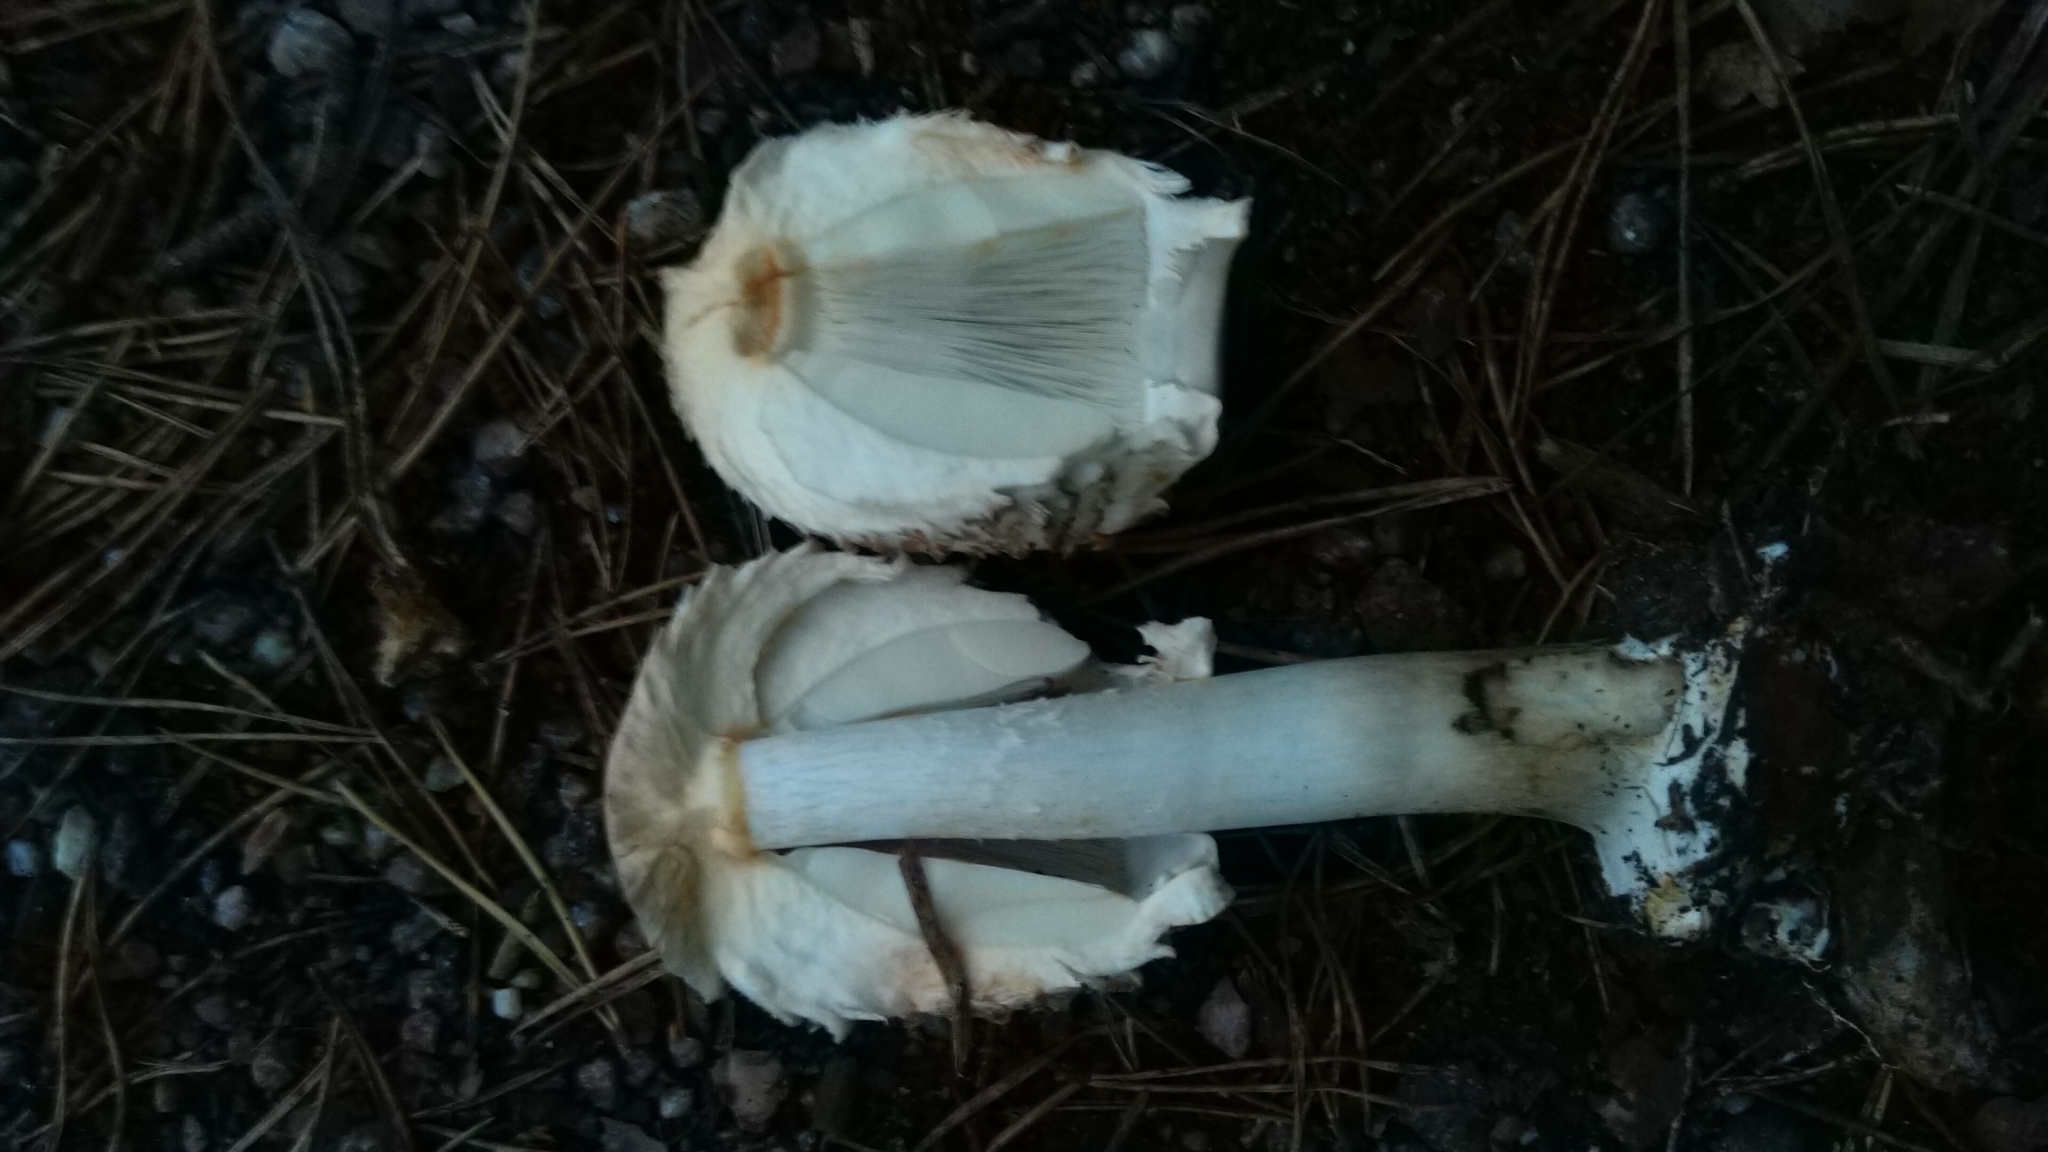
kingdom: Fungi
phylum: Basidiomycota
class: Agaricomycetes
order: Agaricales
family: Agaricaceae
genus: Chlorophyllum
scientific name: Chlorophyllum olivieri
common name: Conifer parasol
